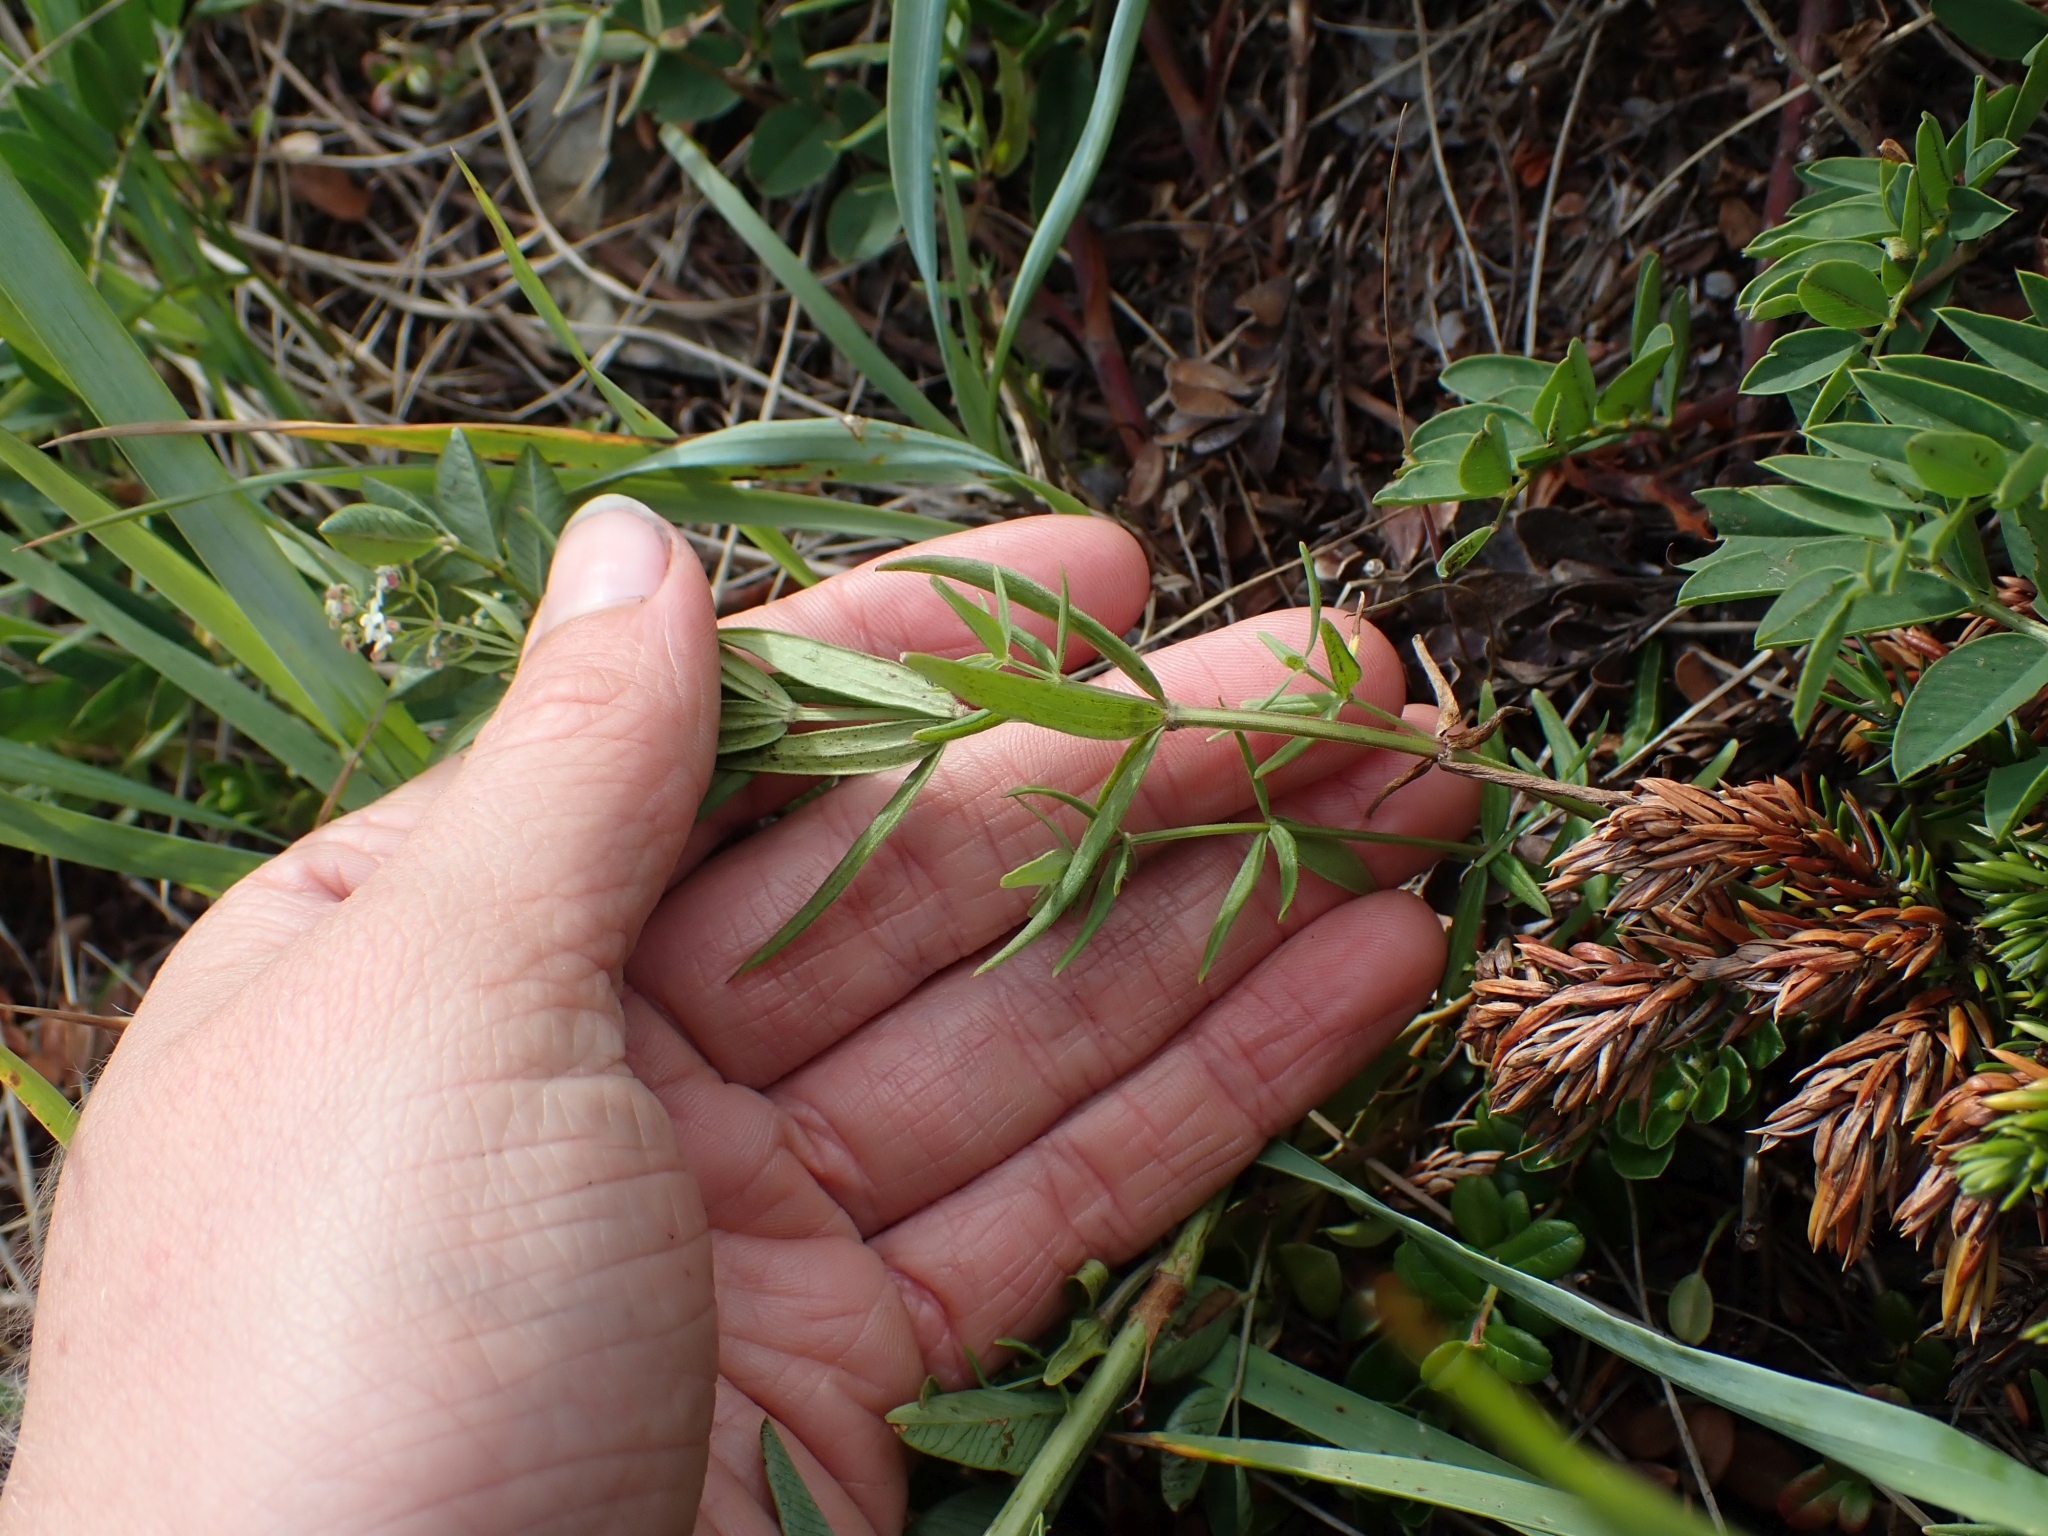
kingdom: Plantae
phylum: Tracheophyta
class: Magnoliopsida
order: Gentianales
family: Rubiaceae
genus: Galium
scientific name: Galium boreale
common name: Northern bedstraw
